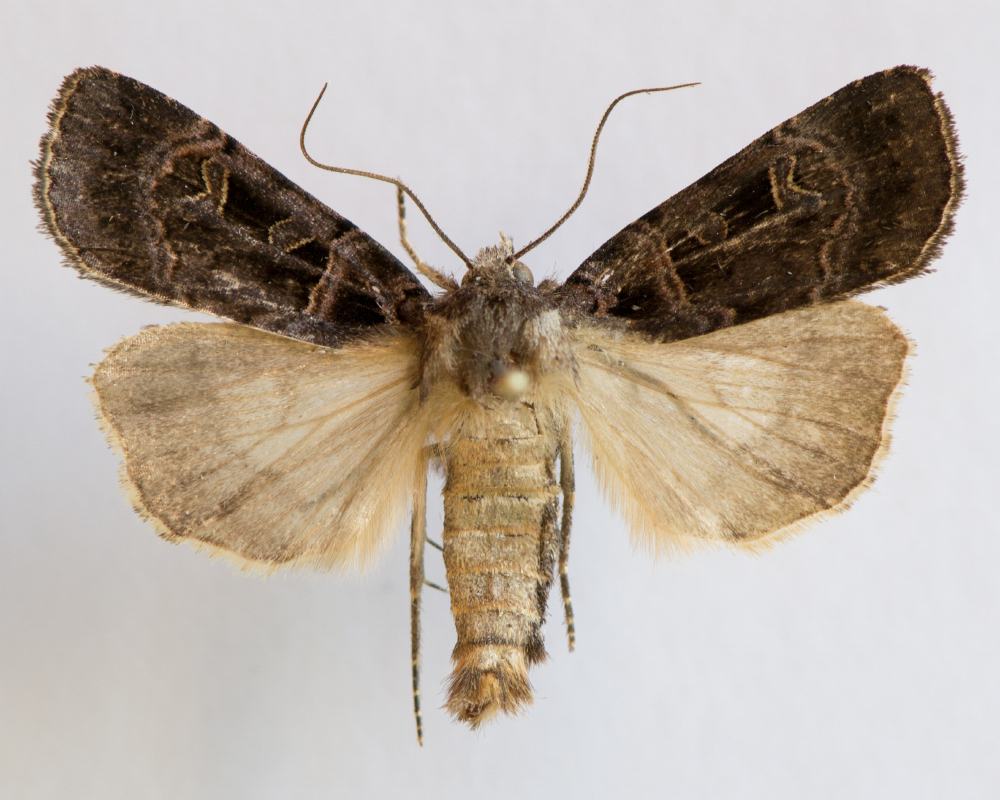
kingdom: Animalia
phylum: Arthropoda
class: Insecta
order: Lepidoptera
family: Noctuidae
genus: Pseudohermonassa
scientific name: Pseudohermonassa melancholica
